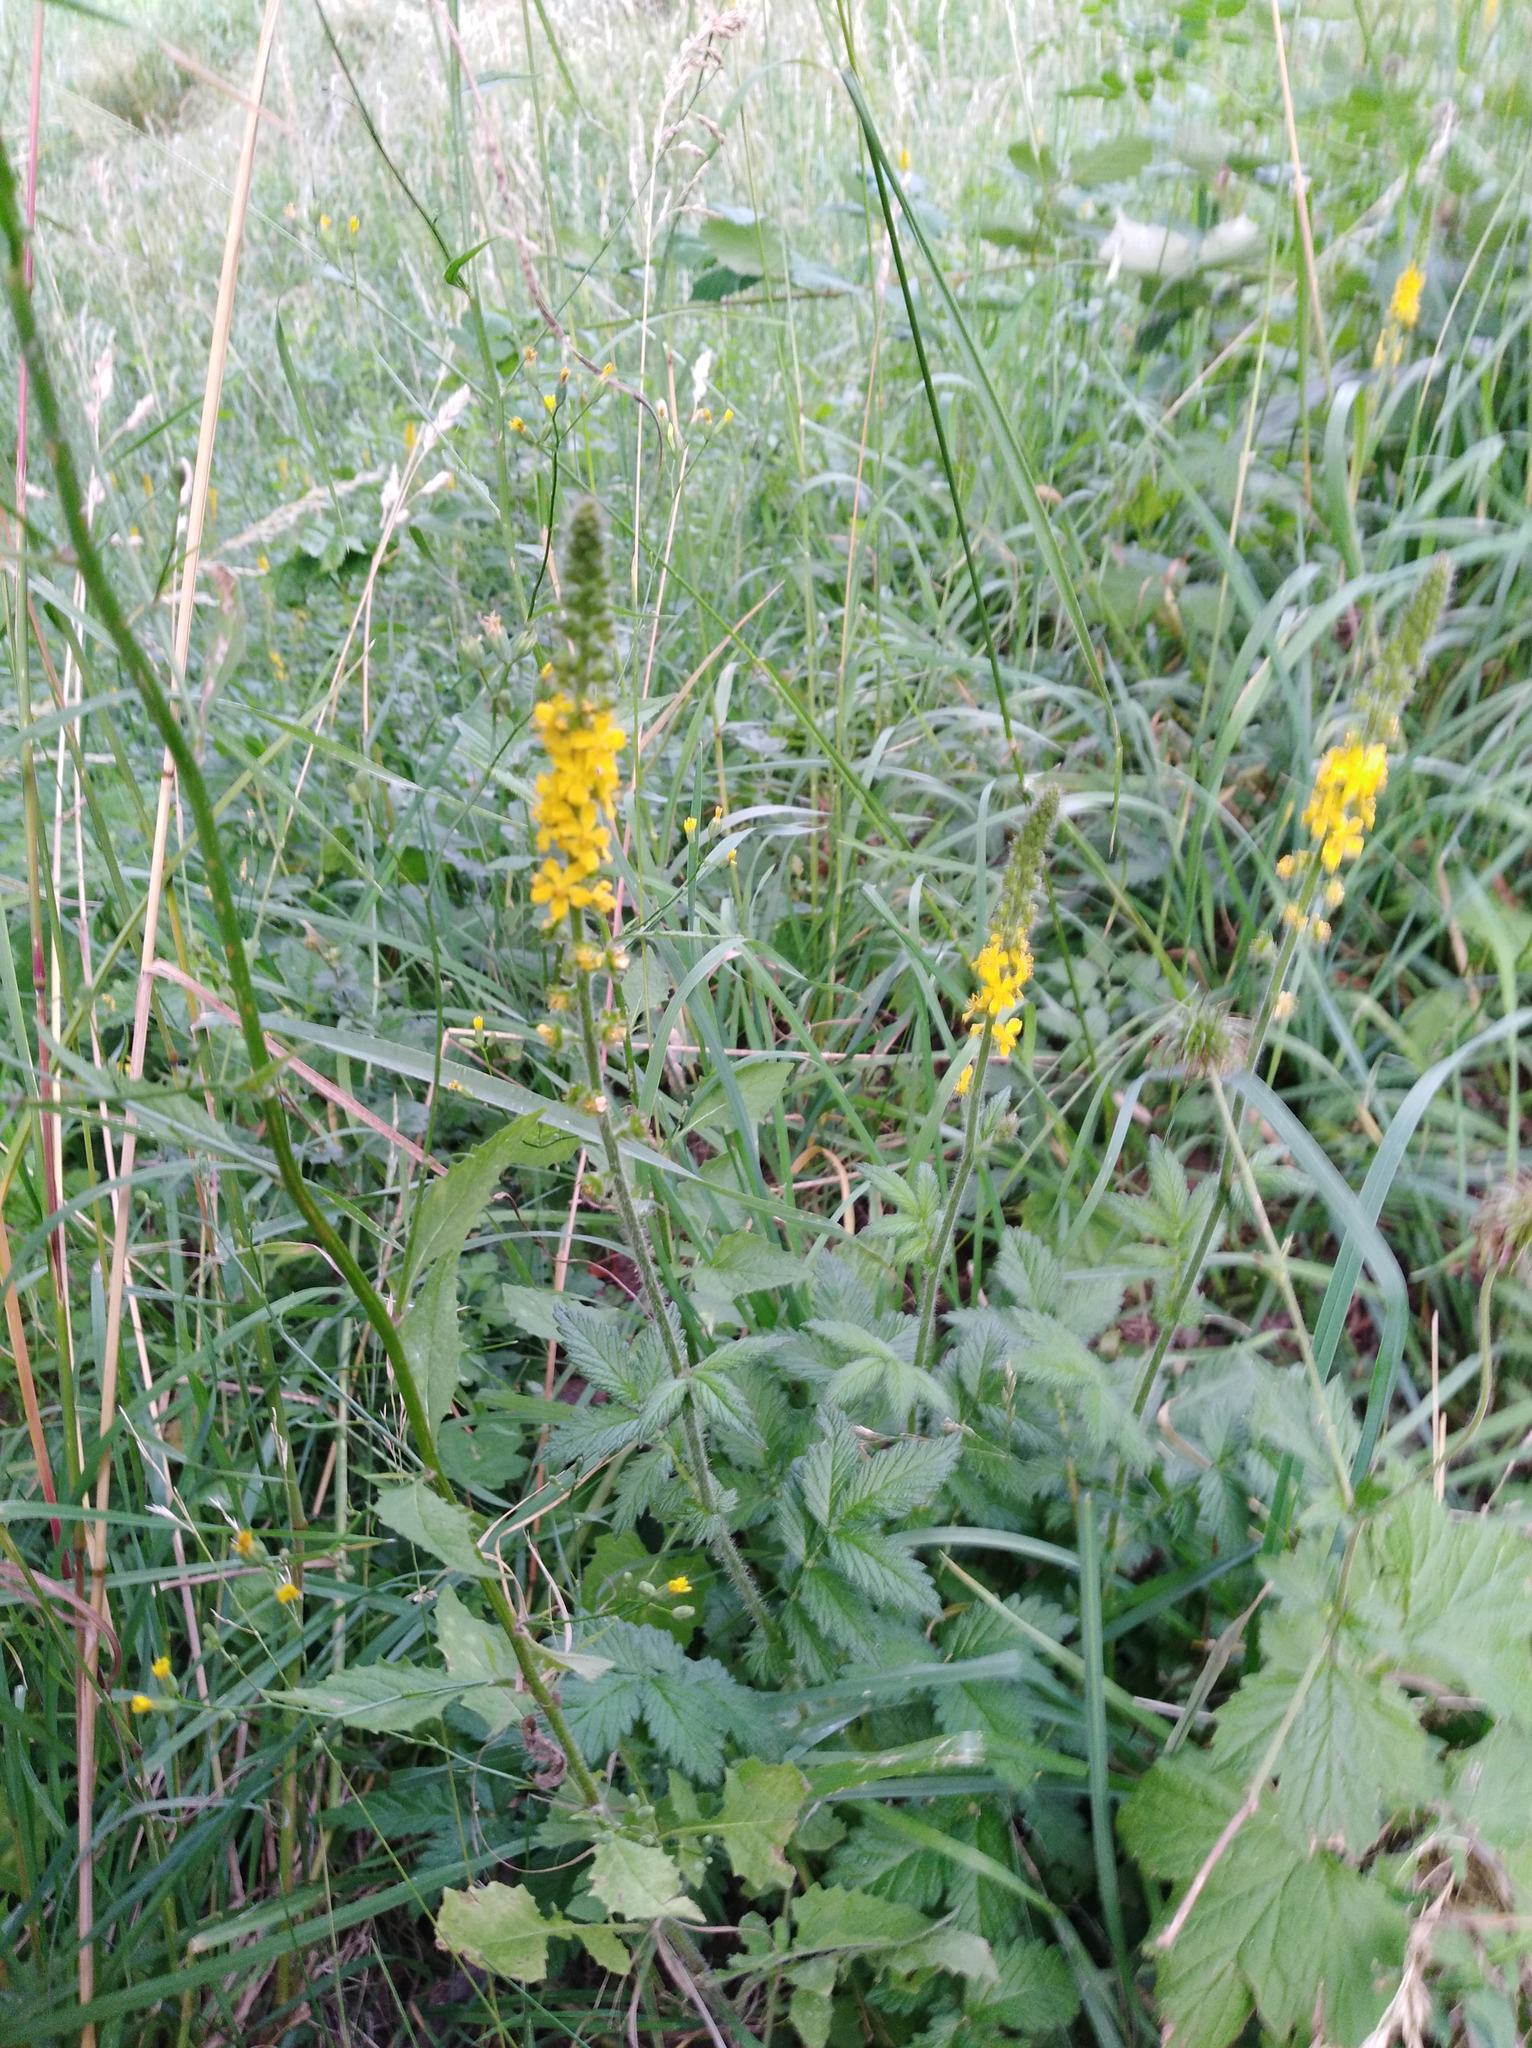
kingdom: Plantae
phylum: Tracheophyta
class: Magnoliopsida
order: Rosales
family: Rosaceae
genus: Agrimonia
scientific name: Agrimonia eupatoria
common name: Agrimony
